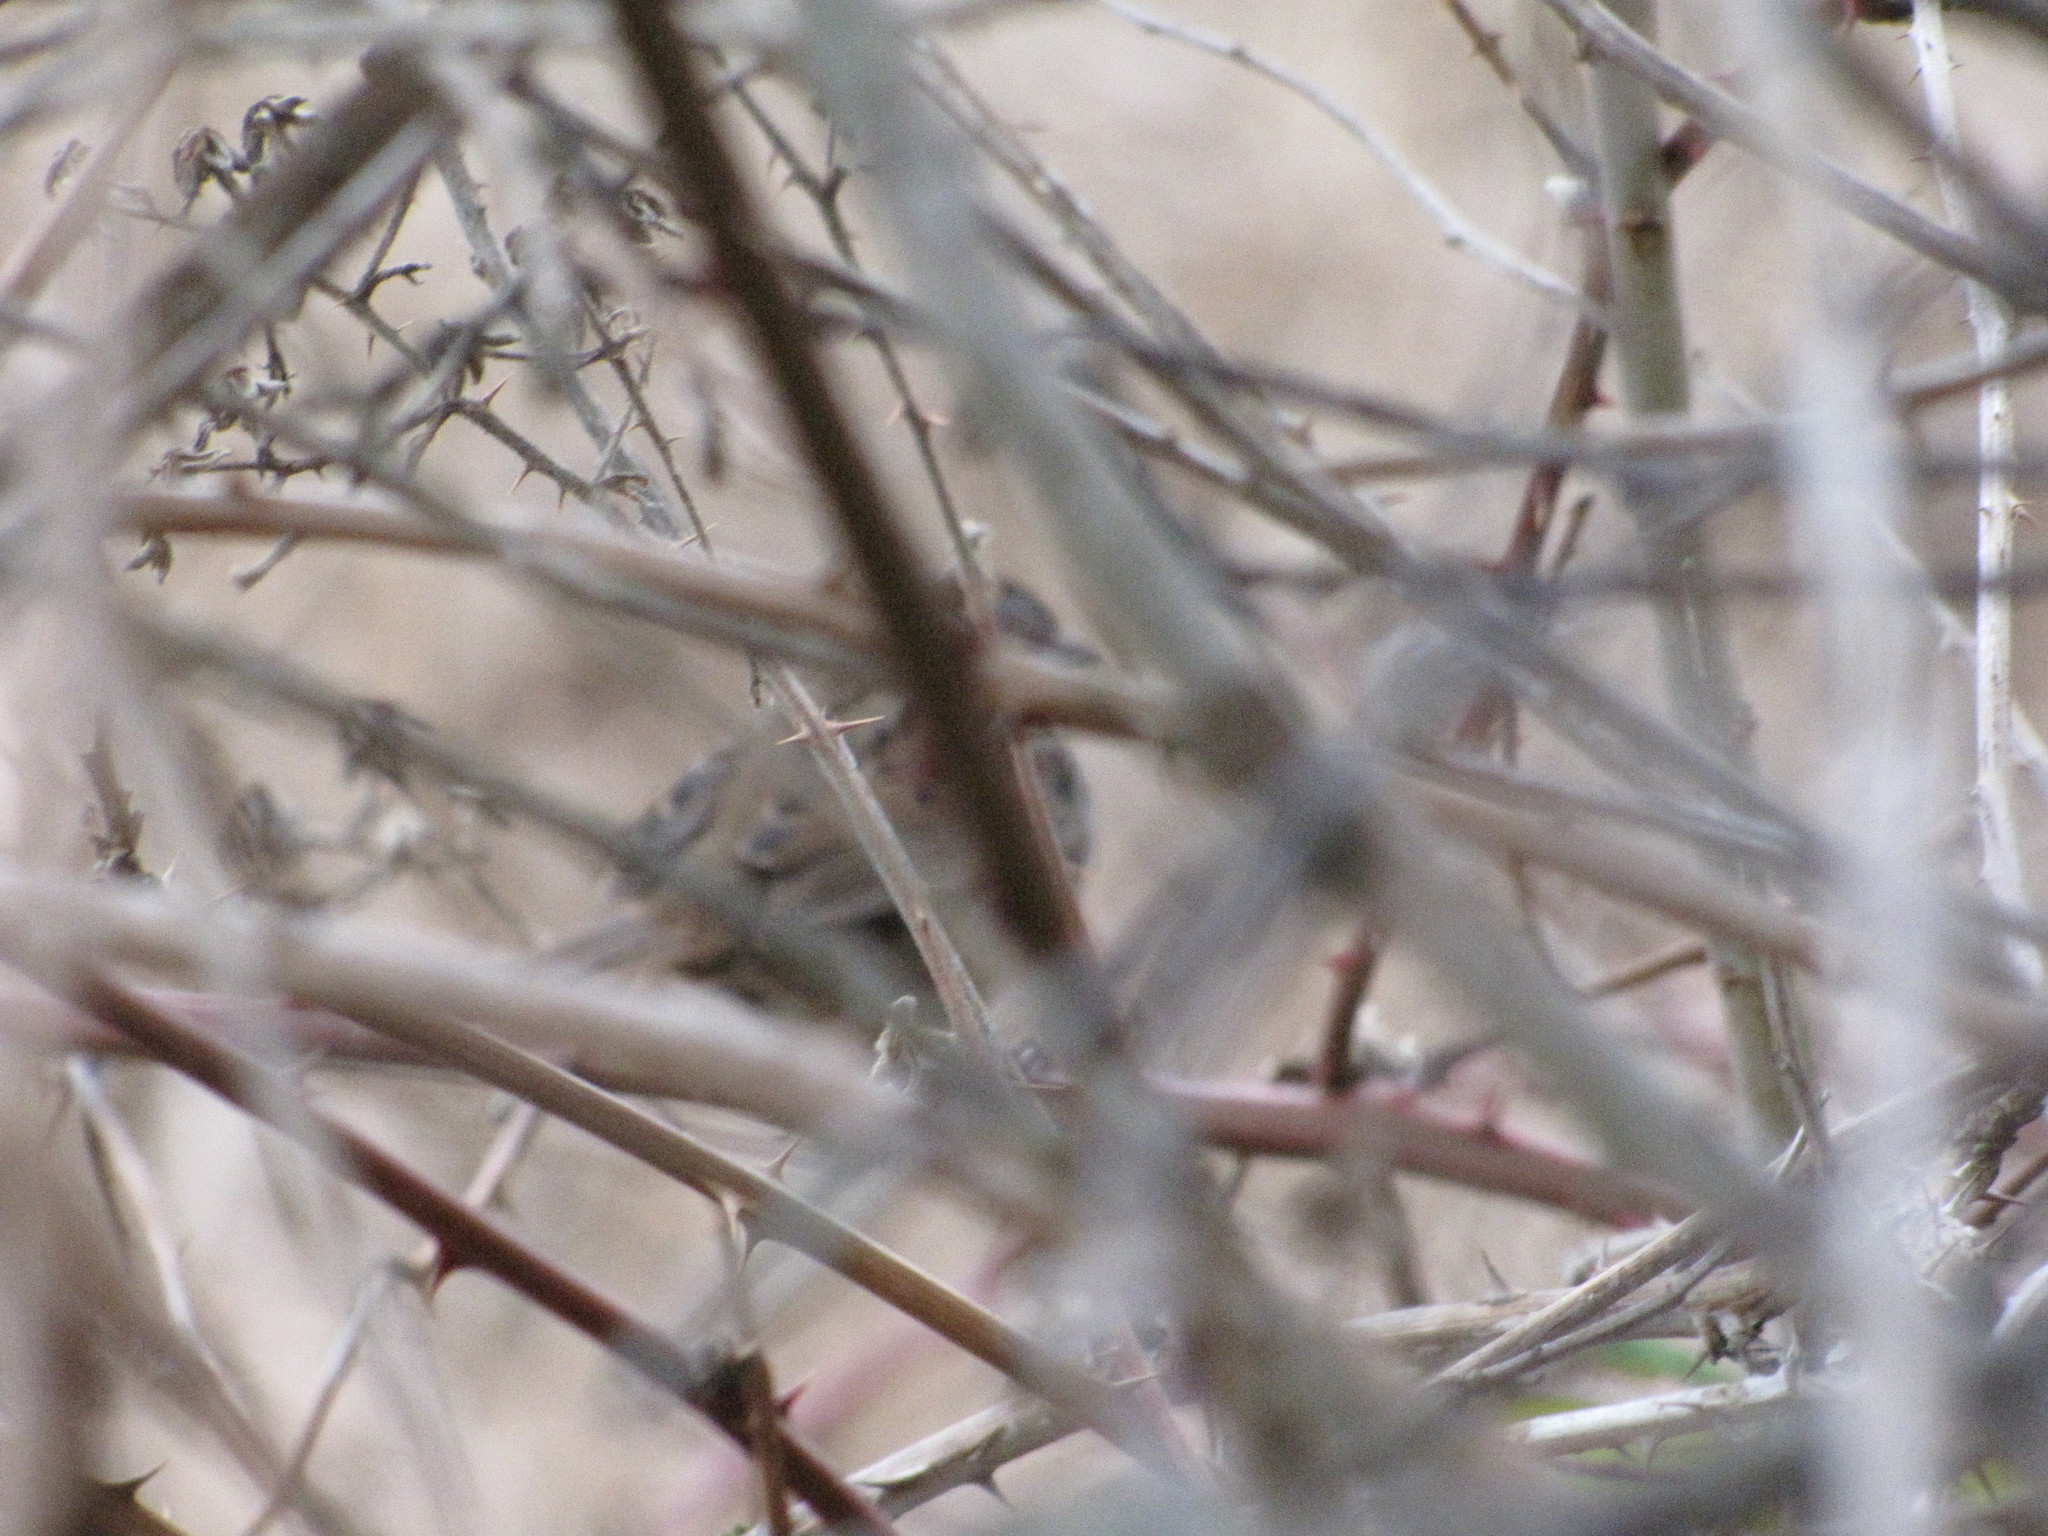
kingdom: Animalia
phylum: Chordata
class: Aves
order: Passeriformes
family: Passerellidae
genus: Melospiza
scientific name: Melospiza melodia
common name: Song sparrow
